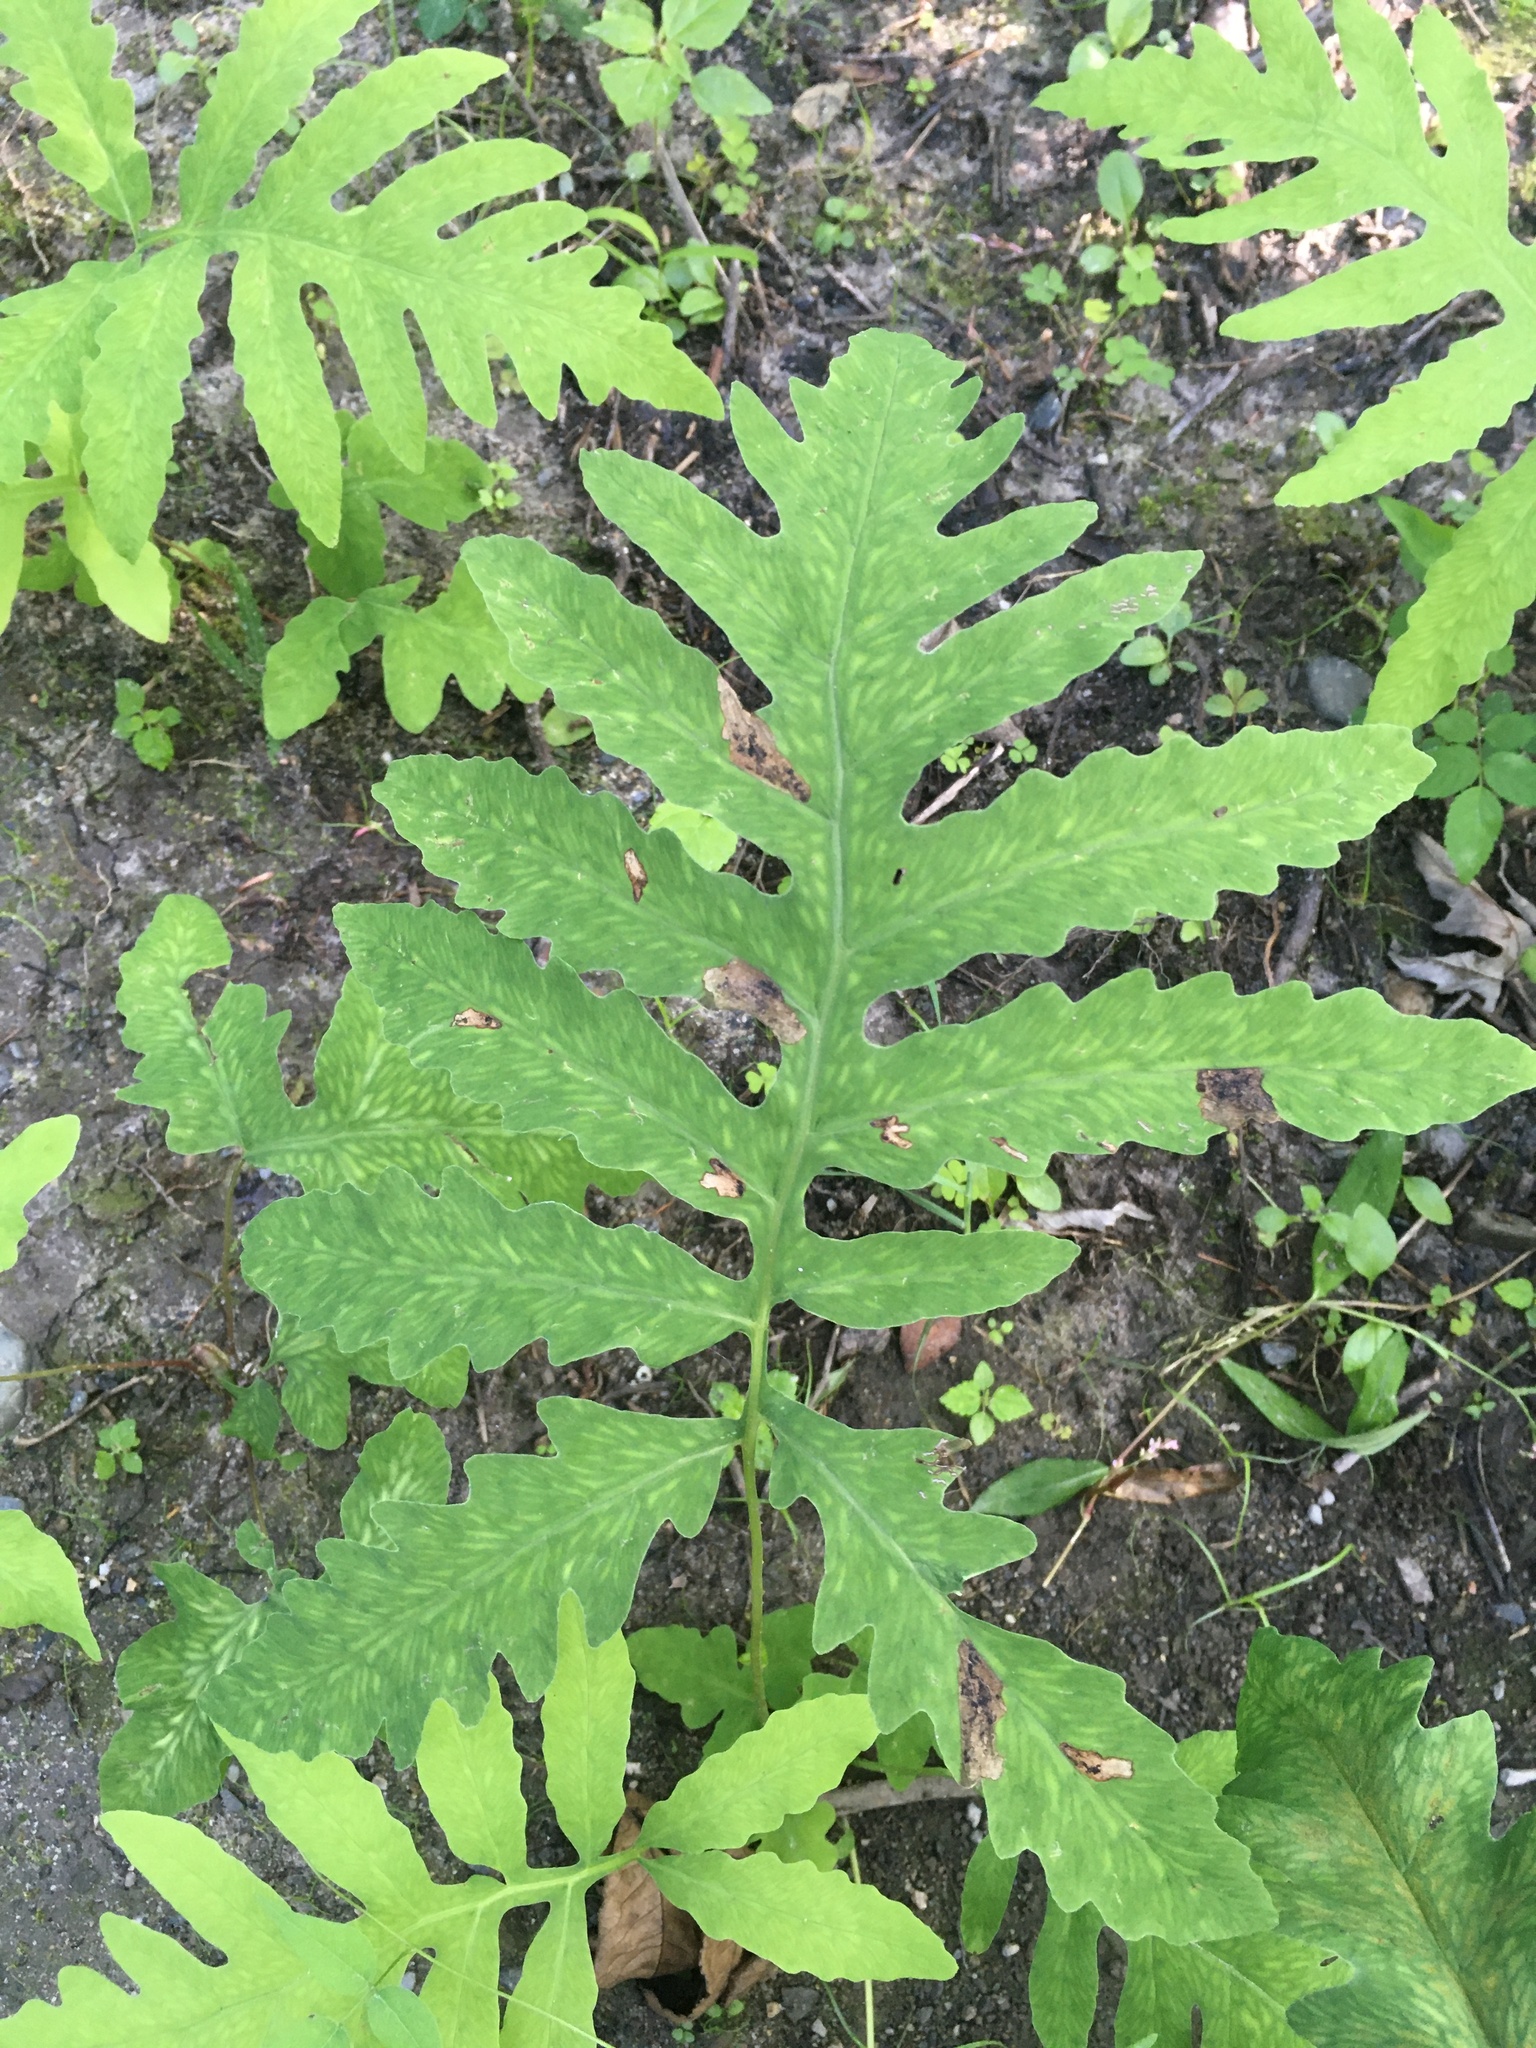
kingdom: Plantae
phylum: Tracheophyta
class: Polypodiopsida
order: Polypodiales
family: Onocleaceae
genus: Onoclea
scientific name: Onoclea sensibilis
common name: Sensitive fern
